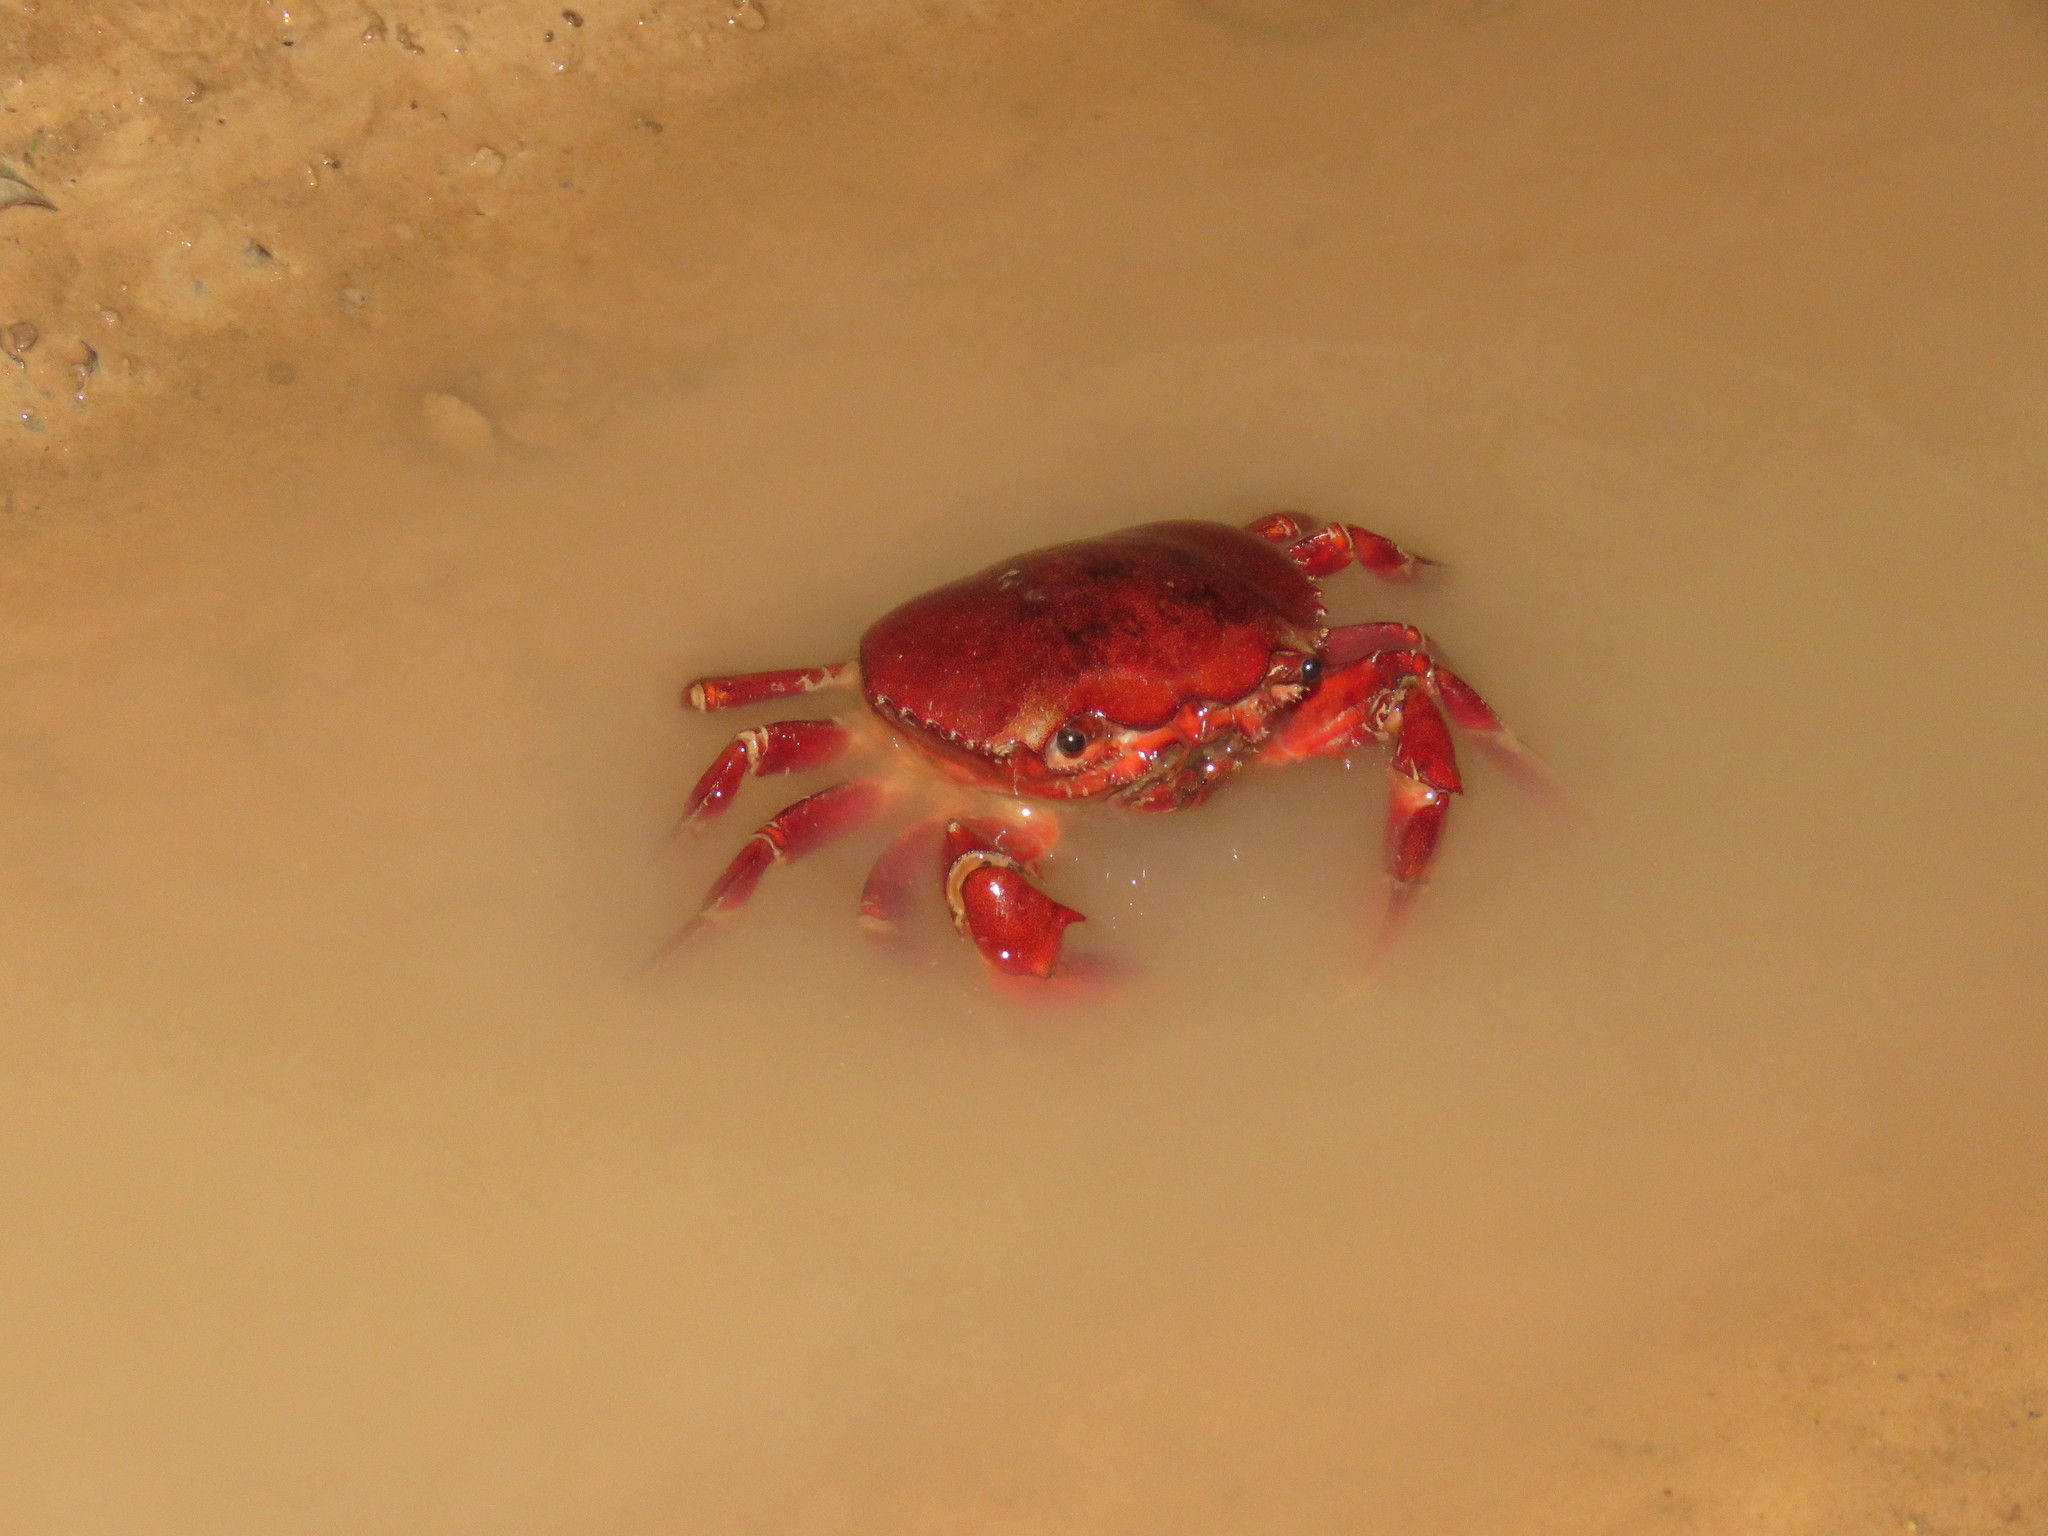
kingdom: Animalia
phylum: Arthropoda
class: Malacostraca
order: Decapoda
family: Trichodactylidae
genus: Dilocarcinus
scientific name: Dilocarcinus pagei
